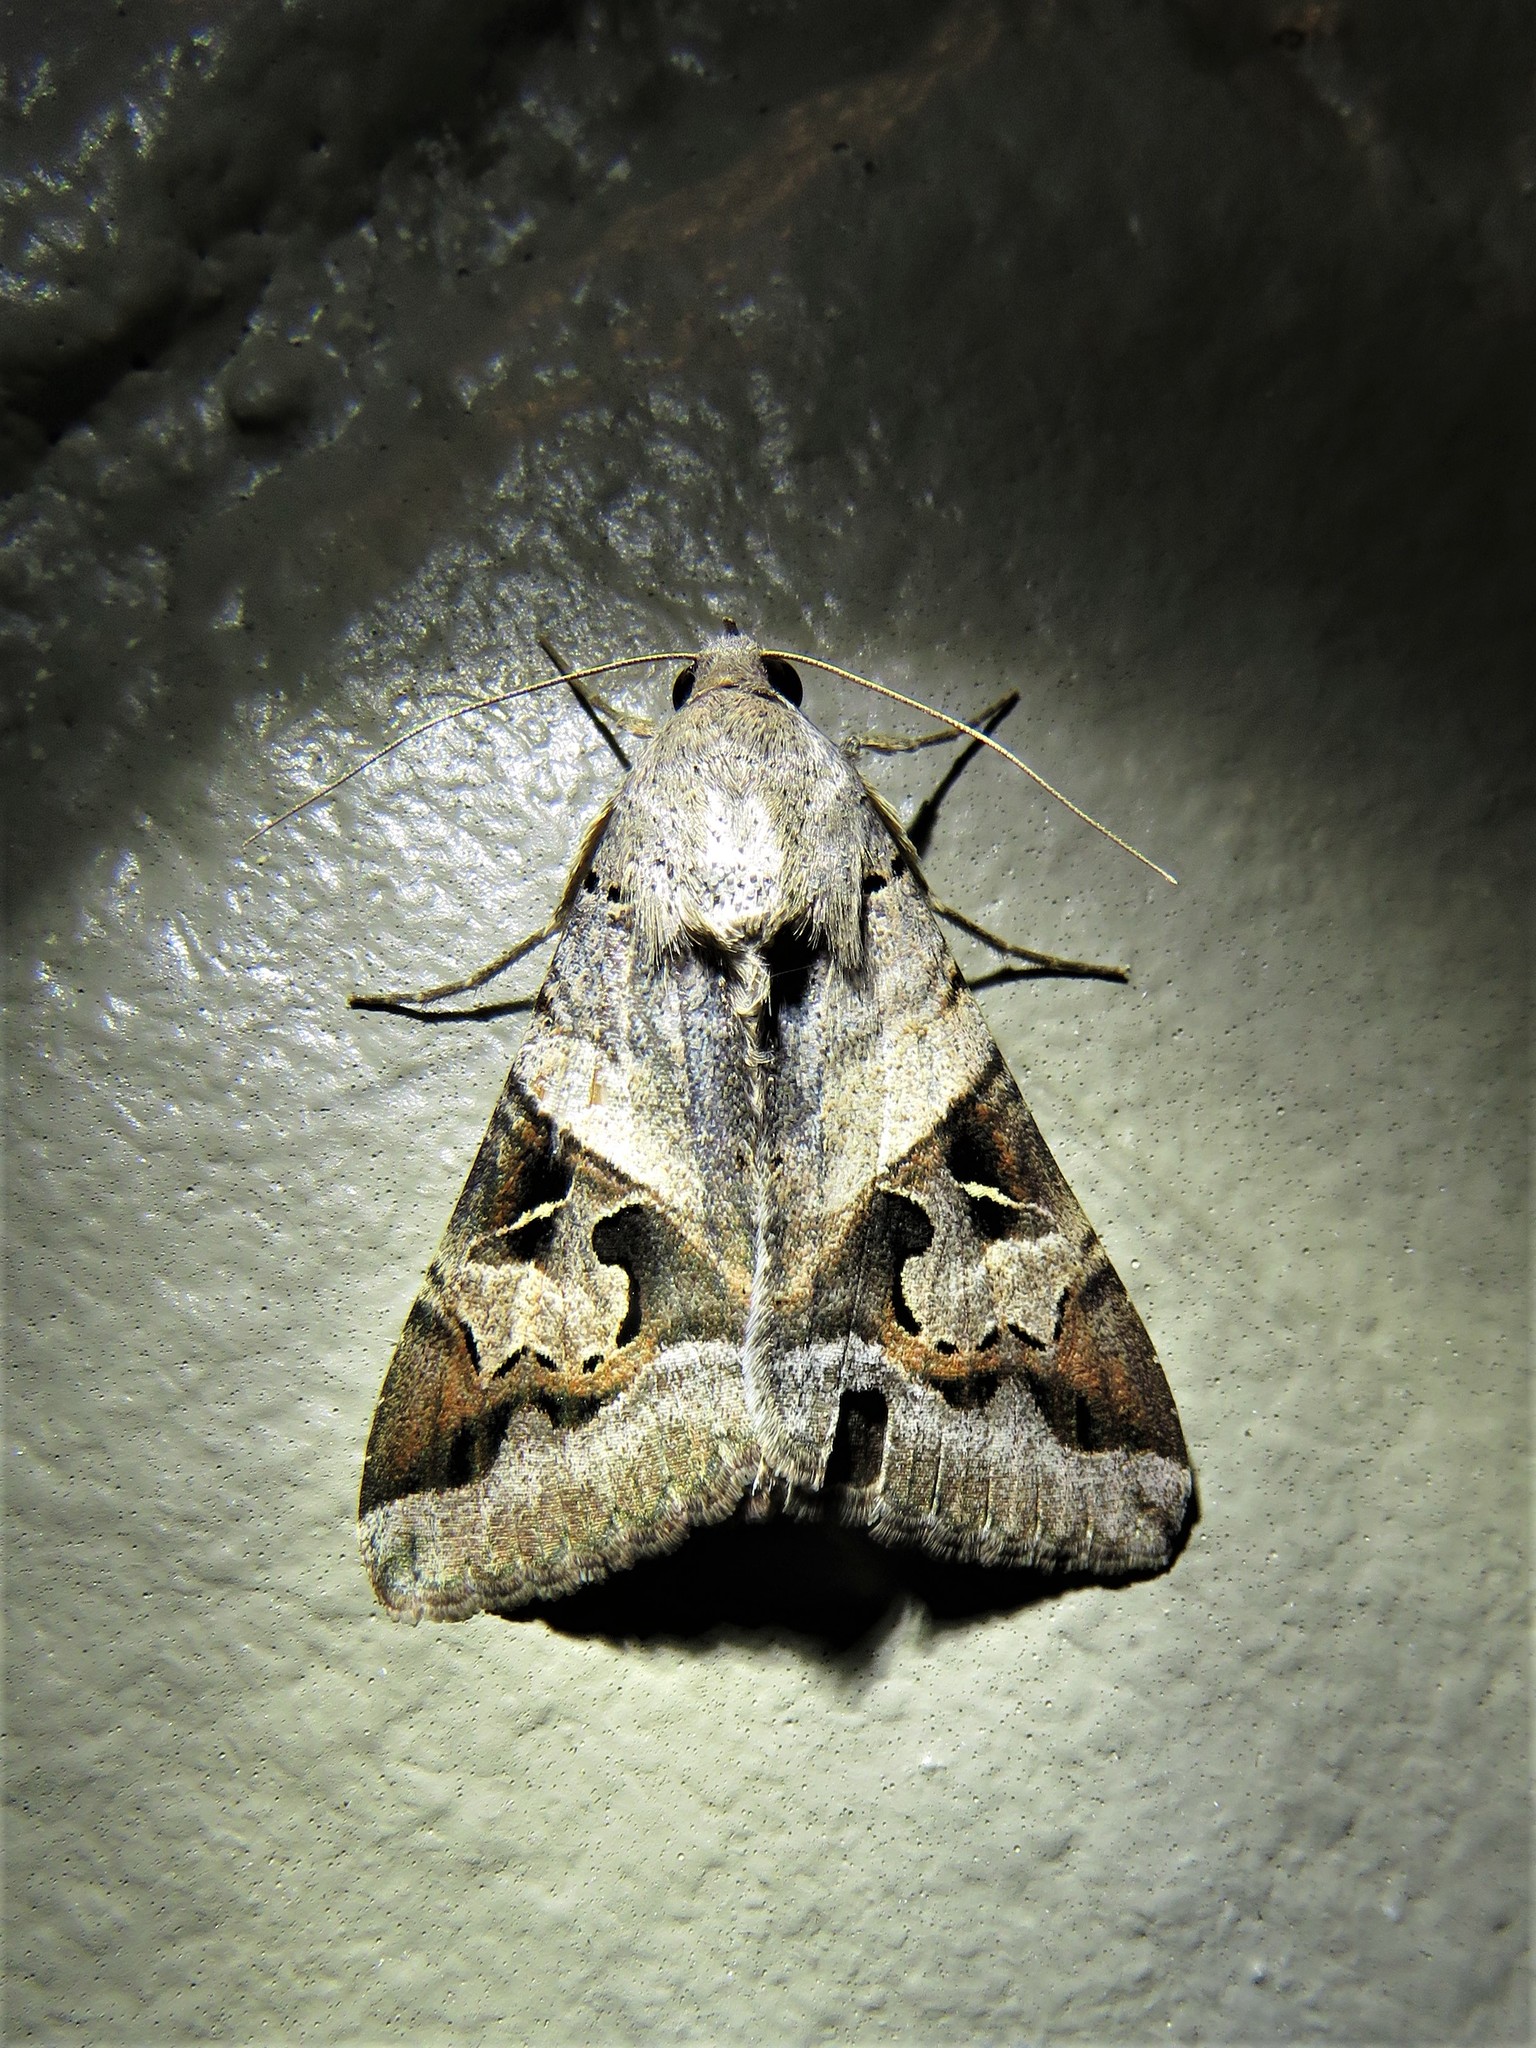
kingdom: Animalia
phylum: Arthropoda
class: Insecta
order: Lepidoptera
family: Erebidae
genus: Melipotis
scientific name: Melipotis indomita
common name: Moth
